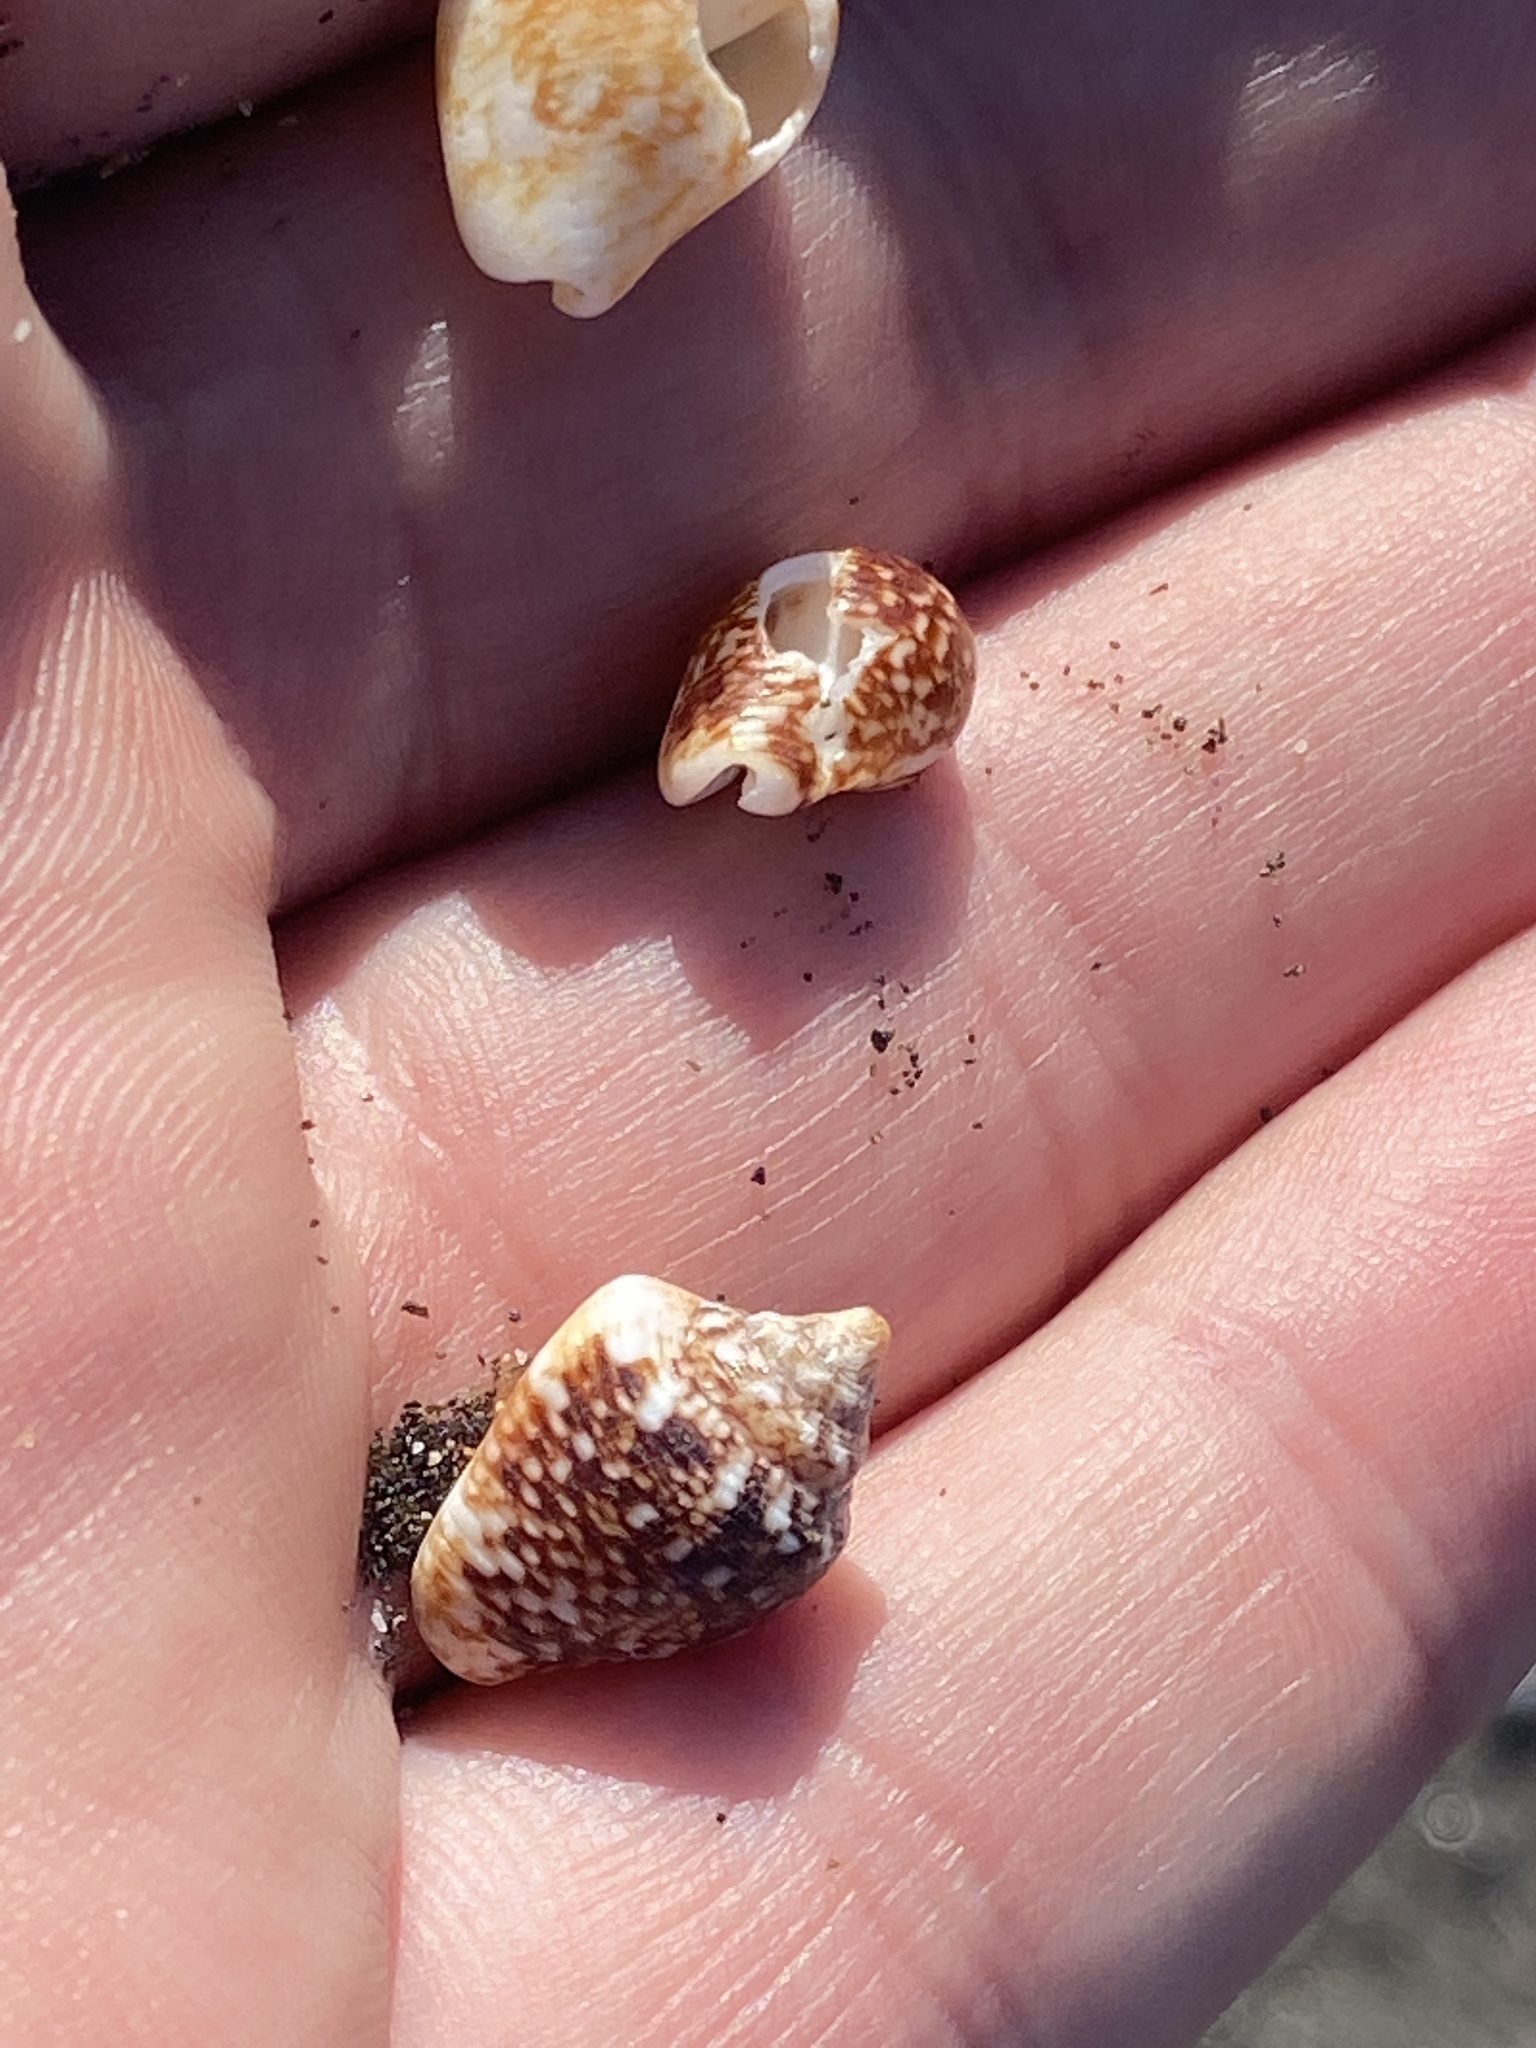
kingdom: Animalia
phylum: Mollusca
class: Gastropoda
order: Neogastropoda
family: Columbellidae
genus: Columbella
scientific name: Columbella adansoni
